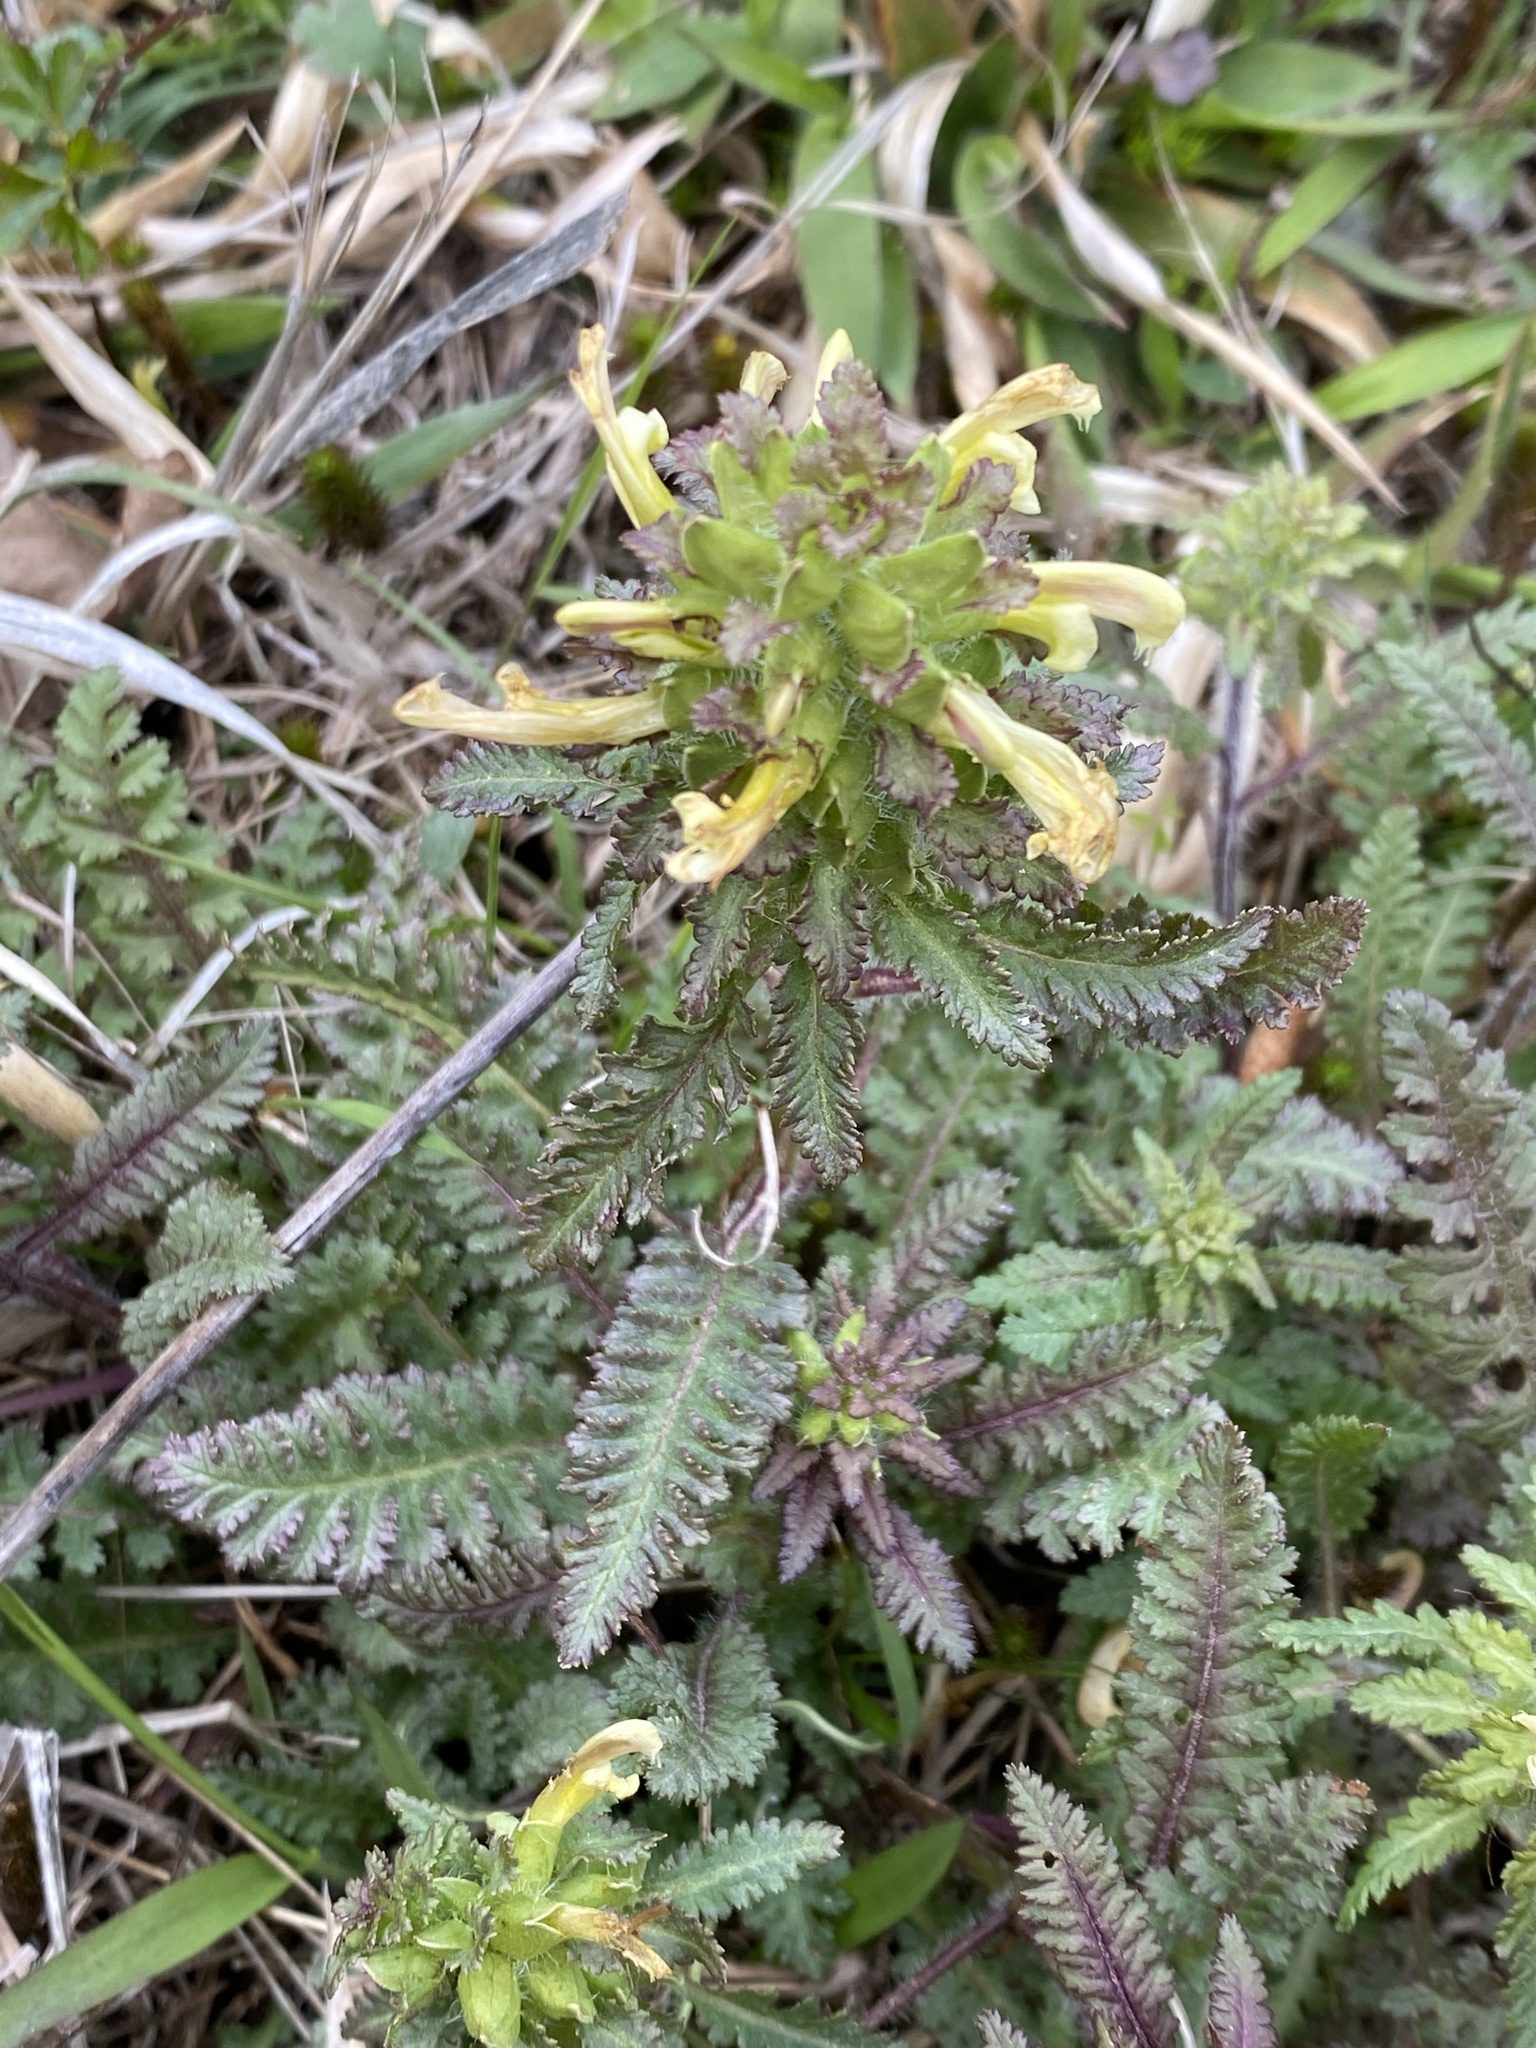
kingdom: Plantae
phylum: Tracheophyta
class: Magnoliopsida
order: Lamiales
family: Orobanchaceae
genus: Pedicularis
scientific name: Pedicularis canadensis
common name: Early lousewort
